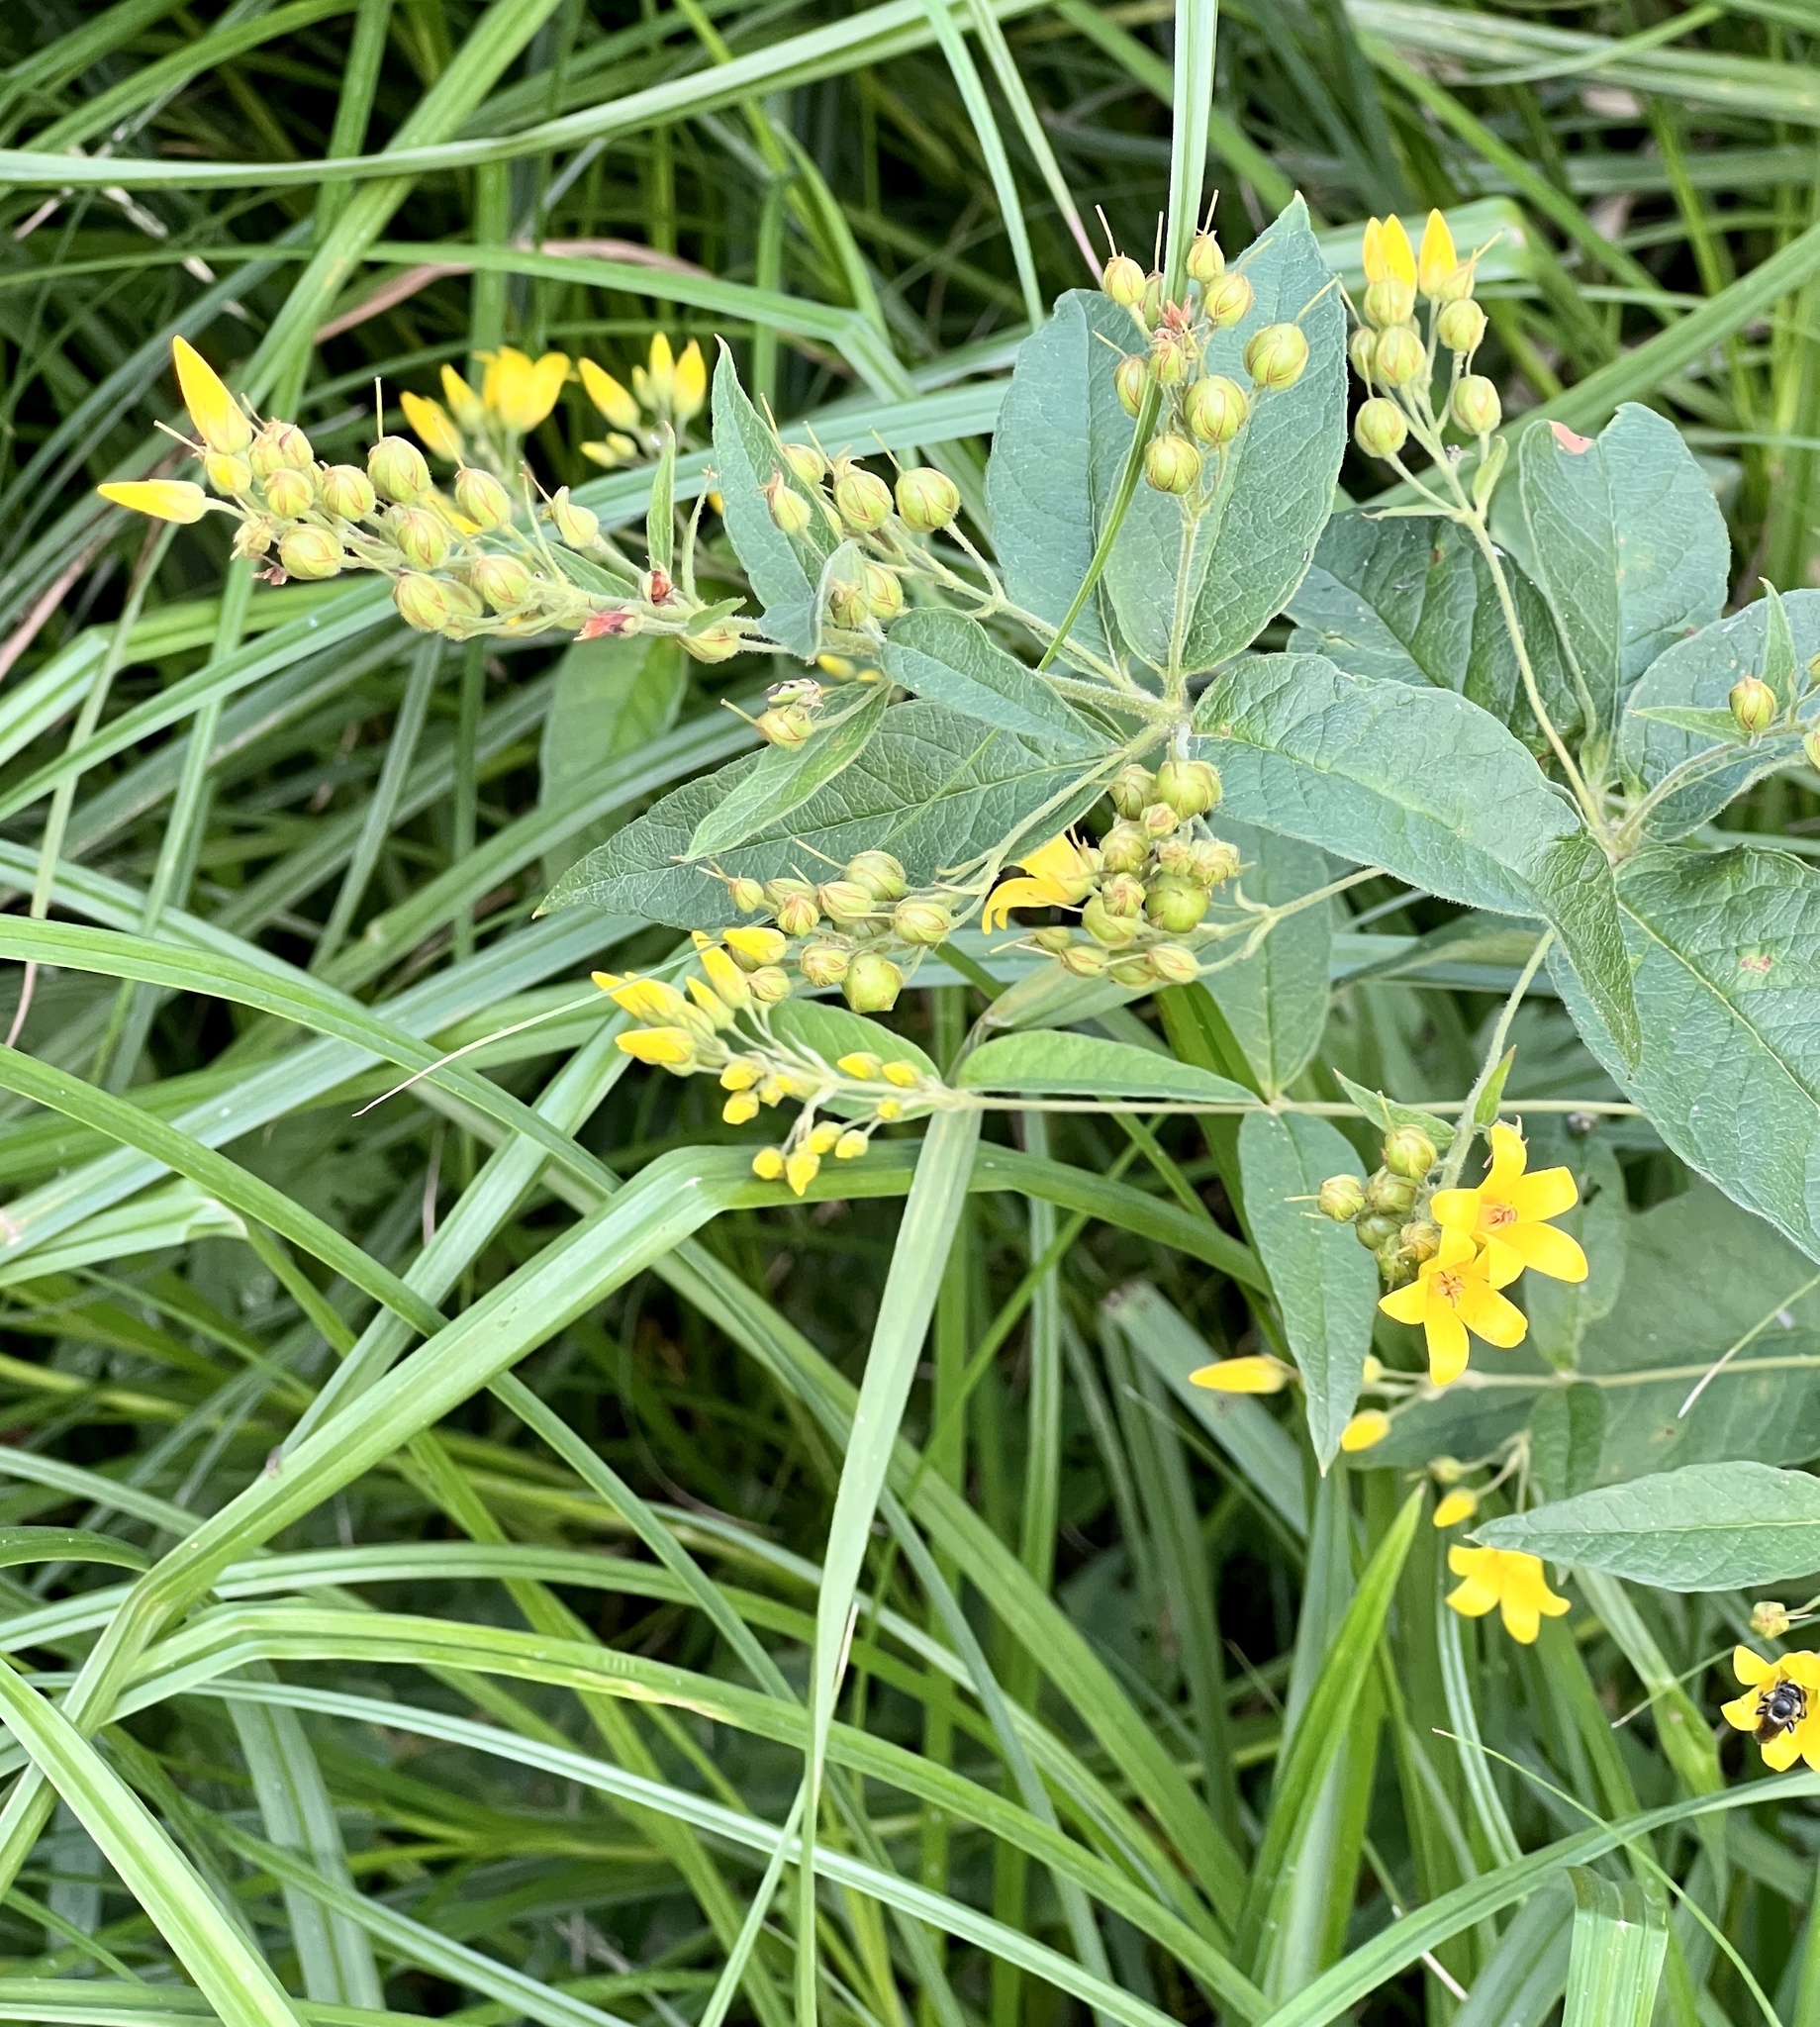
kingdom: Plantae
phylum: Tracheophyta
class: Magnoliopsida
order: Ericales
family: Primulaceae
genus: Lysimachia
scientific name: Lysimachia vulgaris
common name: Yellow loosestrife
